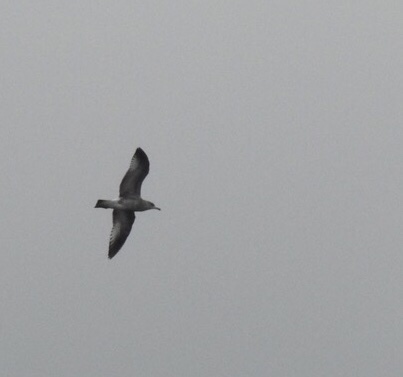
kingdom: Animalia
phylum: Chordata
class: Aves
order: Charadriiformes
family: Laridae
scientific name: Laridae
